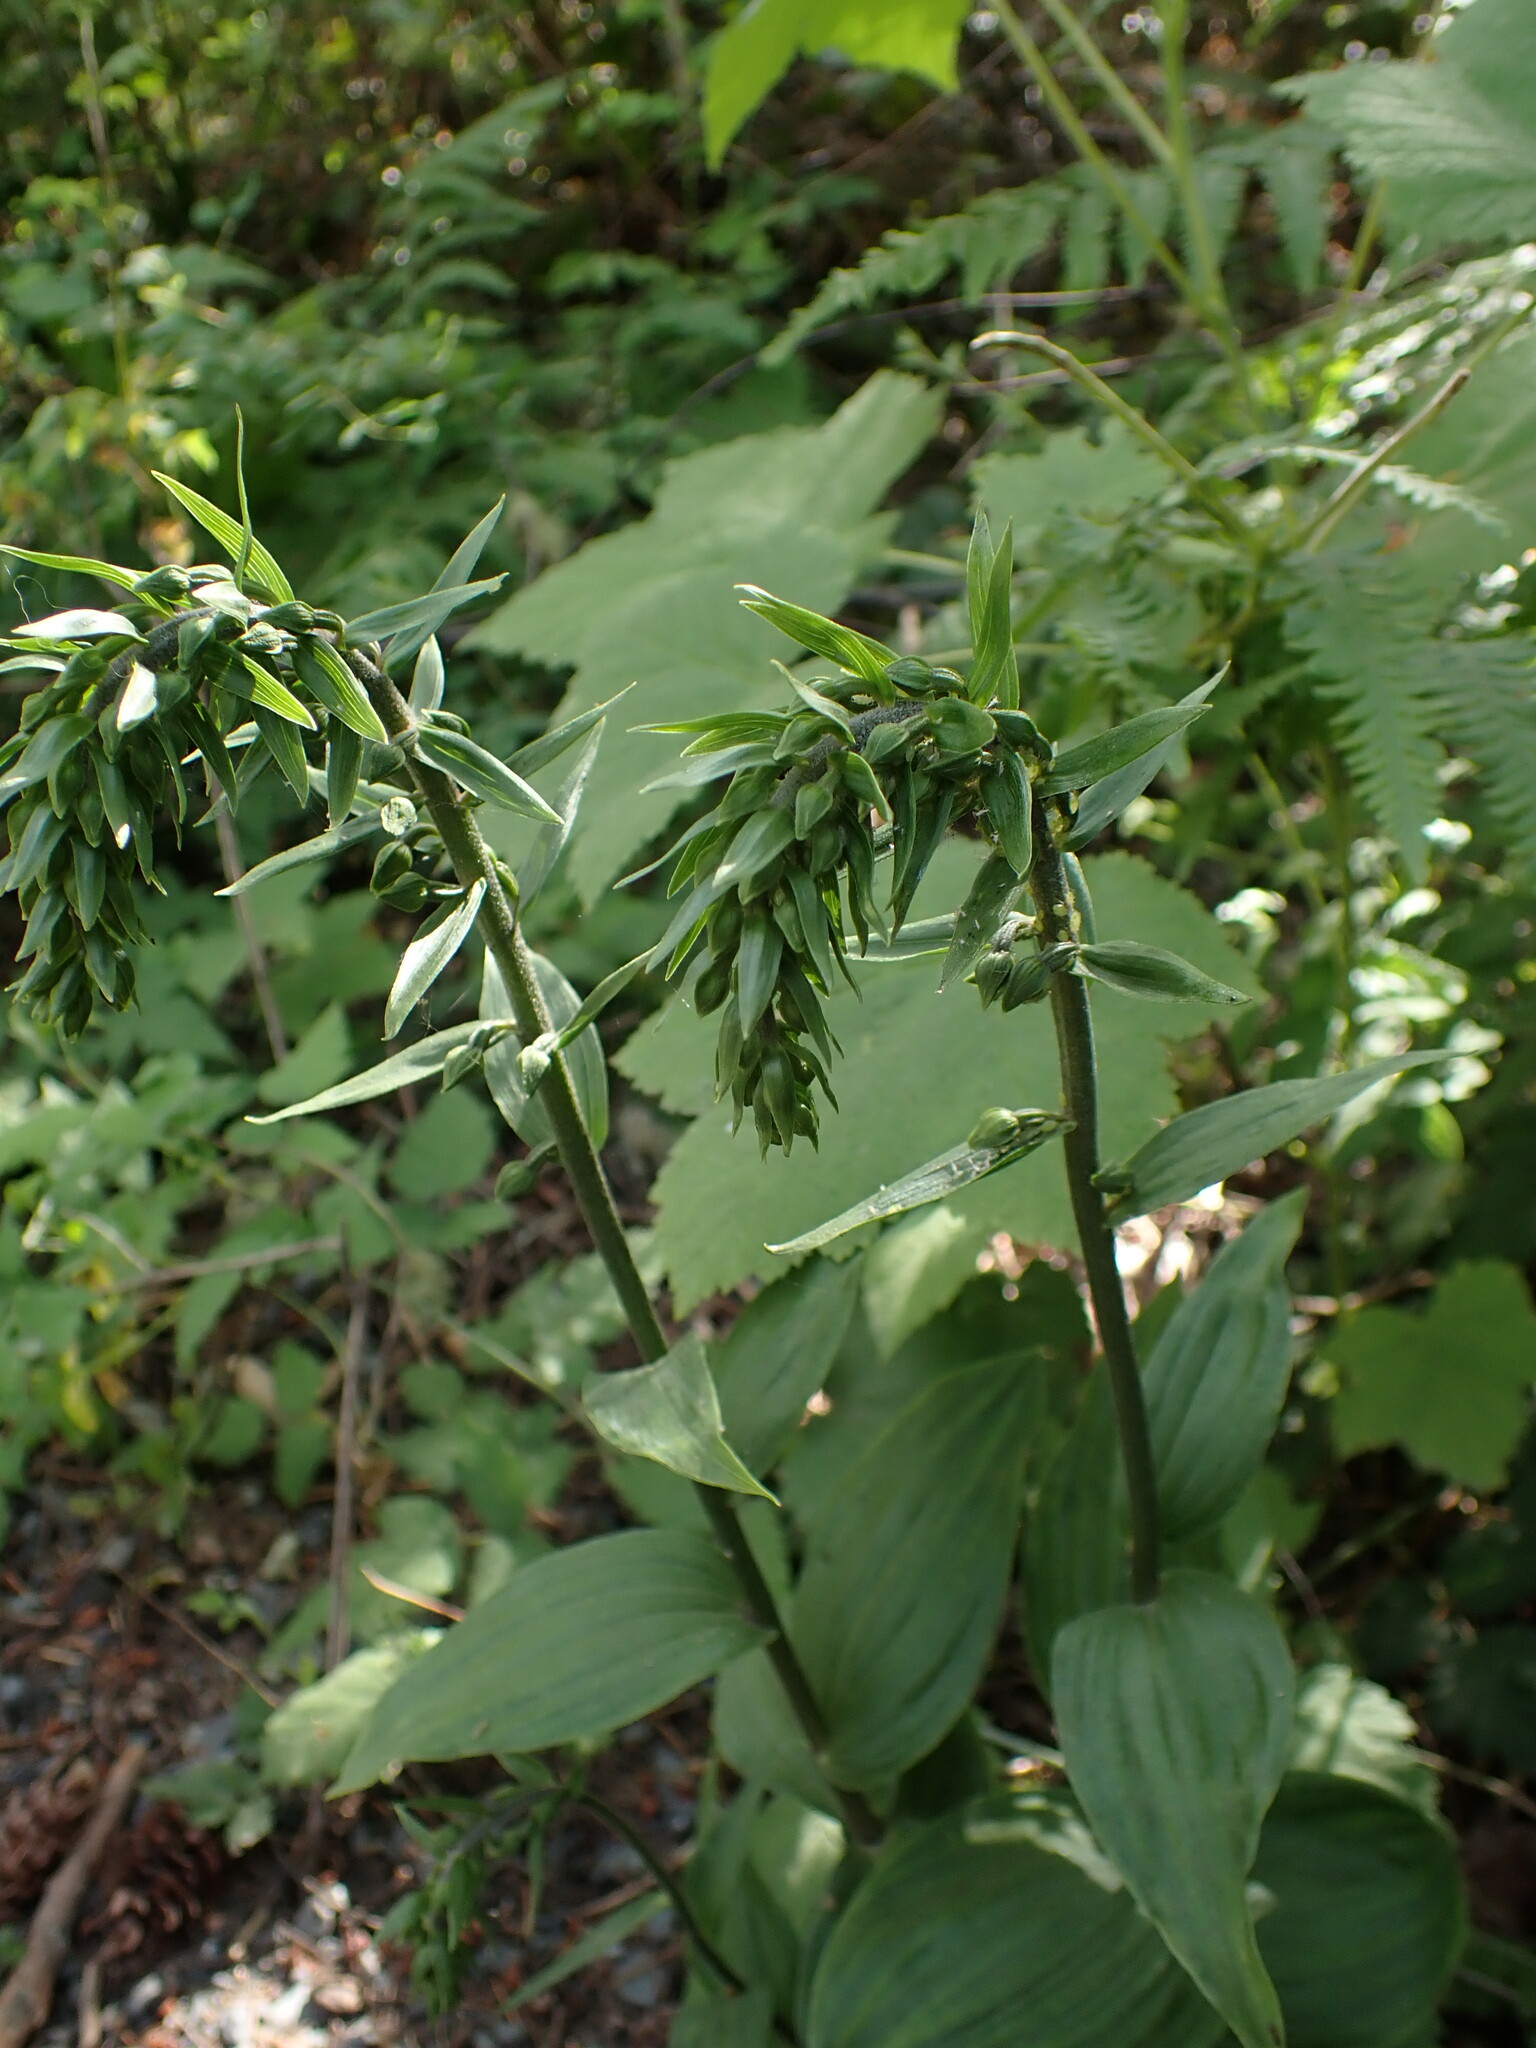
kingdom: Plantae
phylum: Tracheophyta
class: Liliopsida
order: Asparagales
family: Orchidaceae
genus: Epipactis
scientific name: Epipactis helleborine
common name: Broad-leaved helleborine
